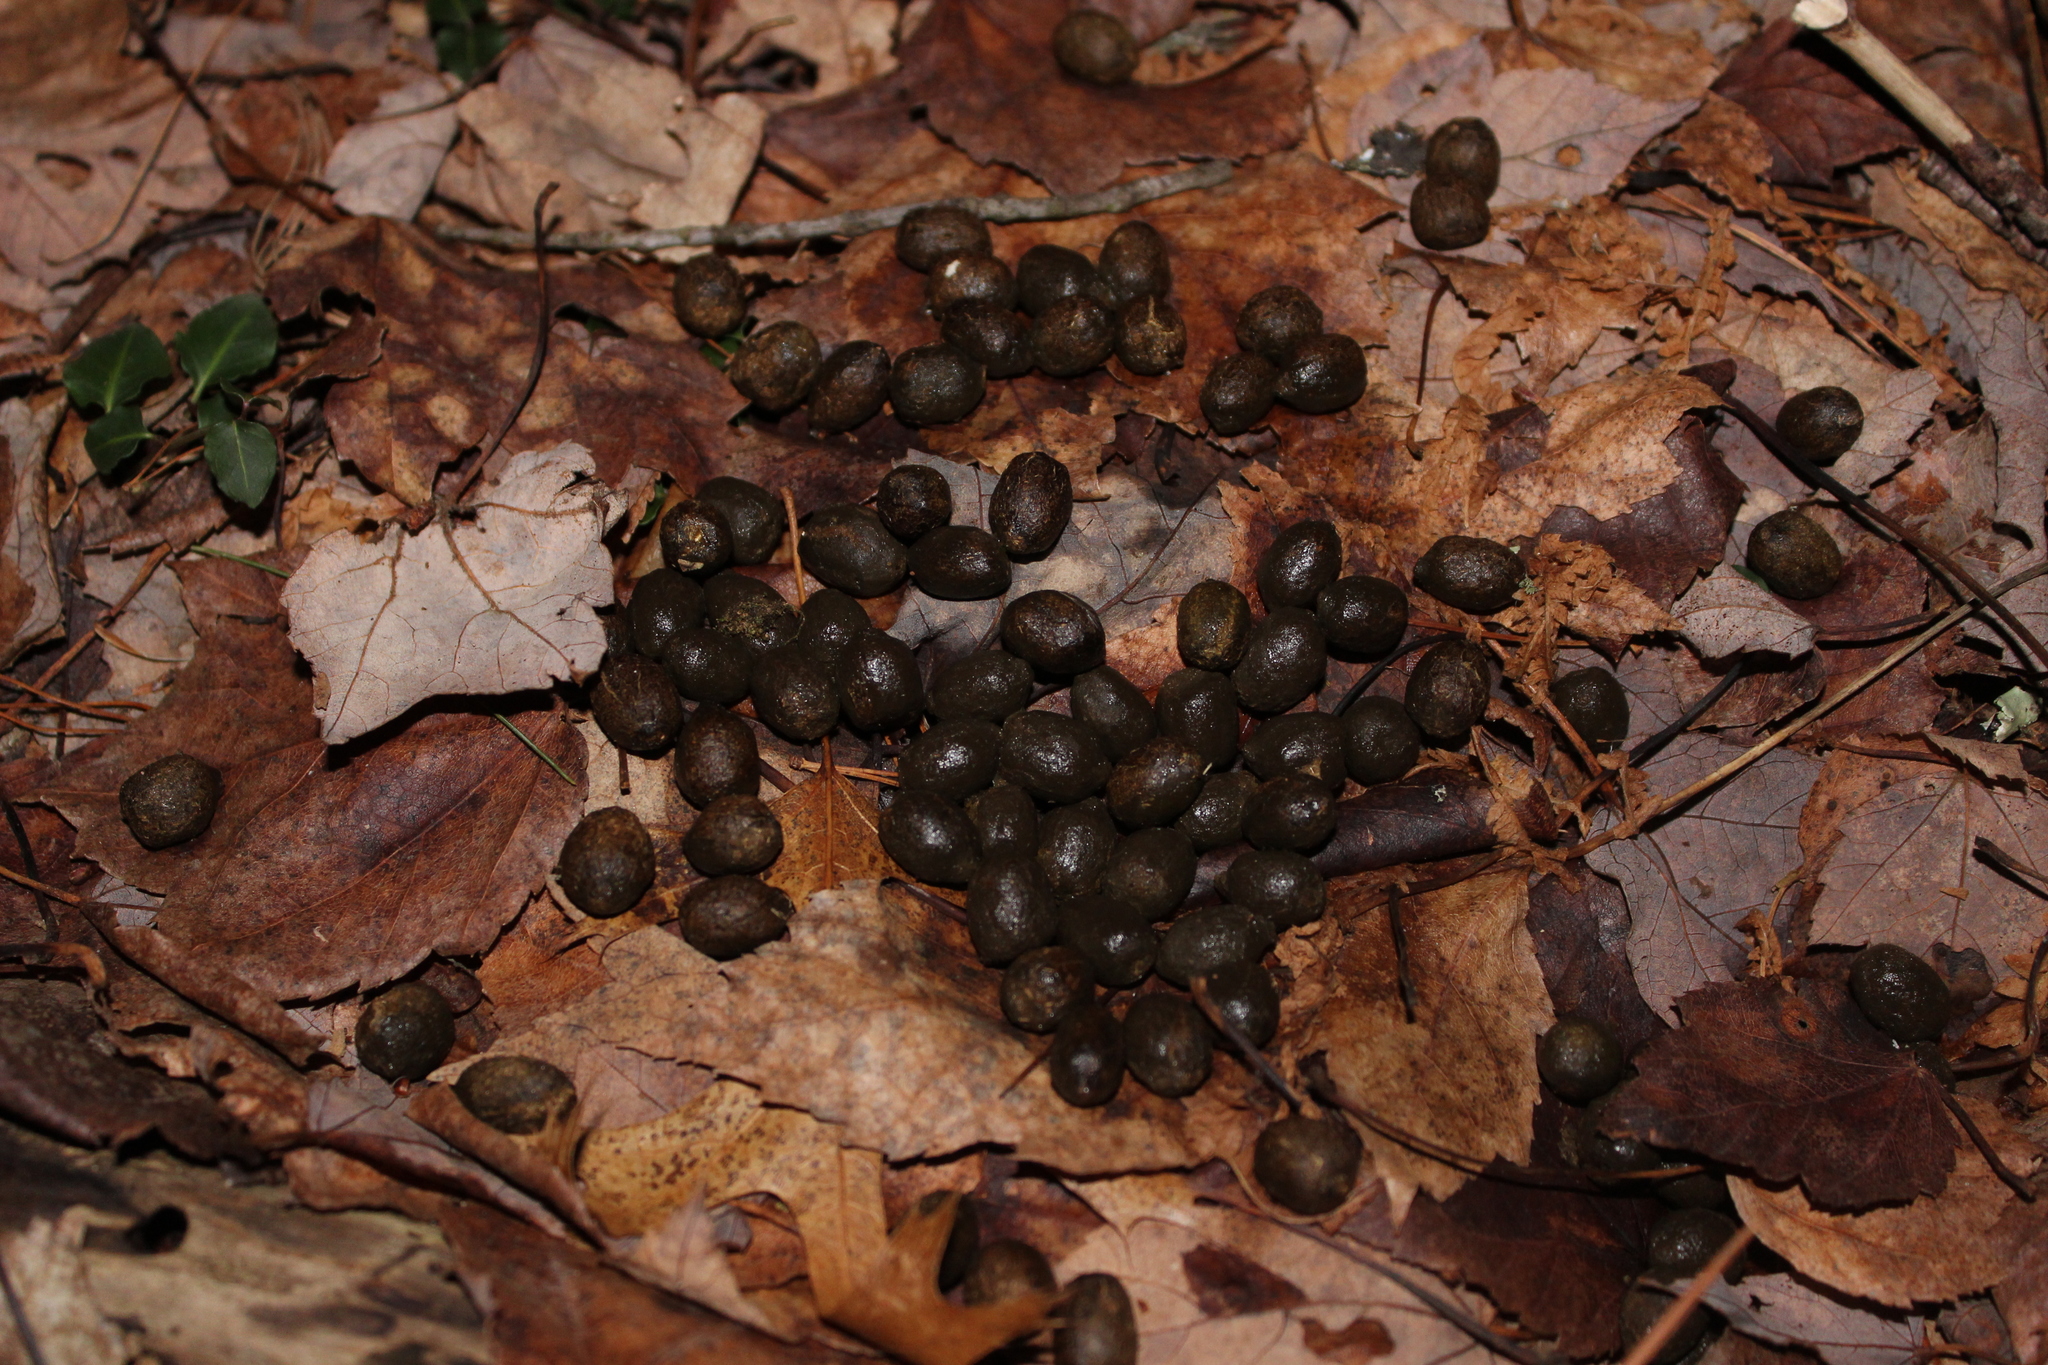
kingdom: Animalia
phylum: Chordata
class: Mammalia
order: Artiodactyla
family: Cervidae
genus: Odocoileus
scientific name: Odocoileus virginianus
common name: White-tailed deer
